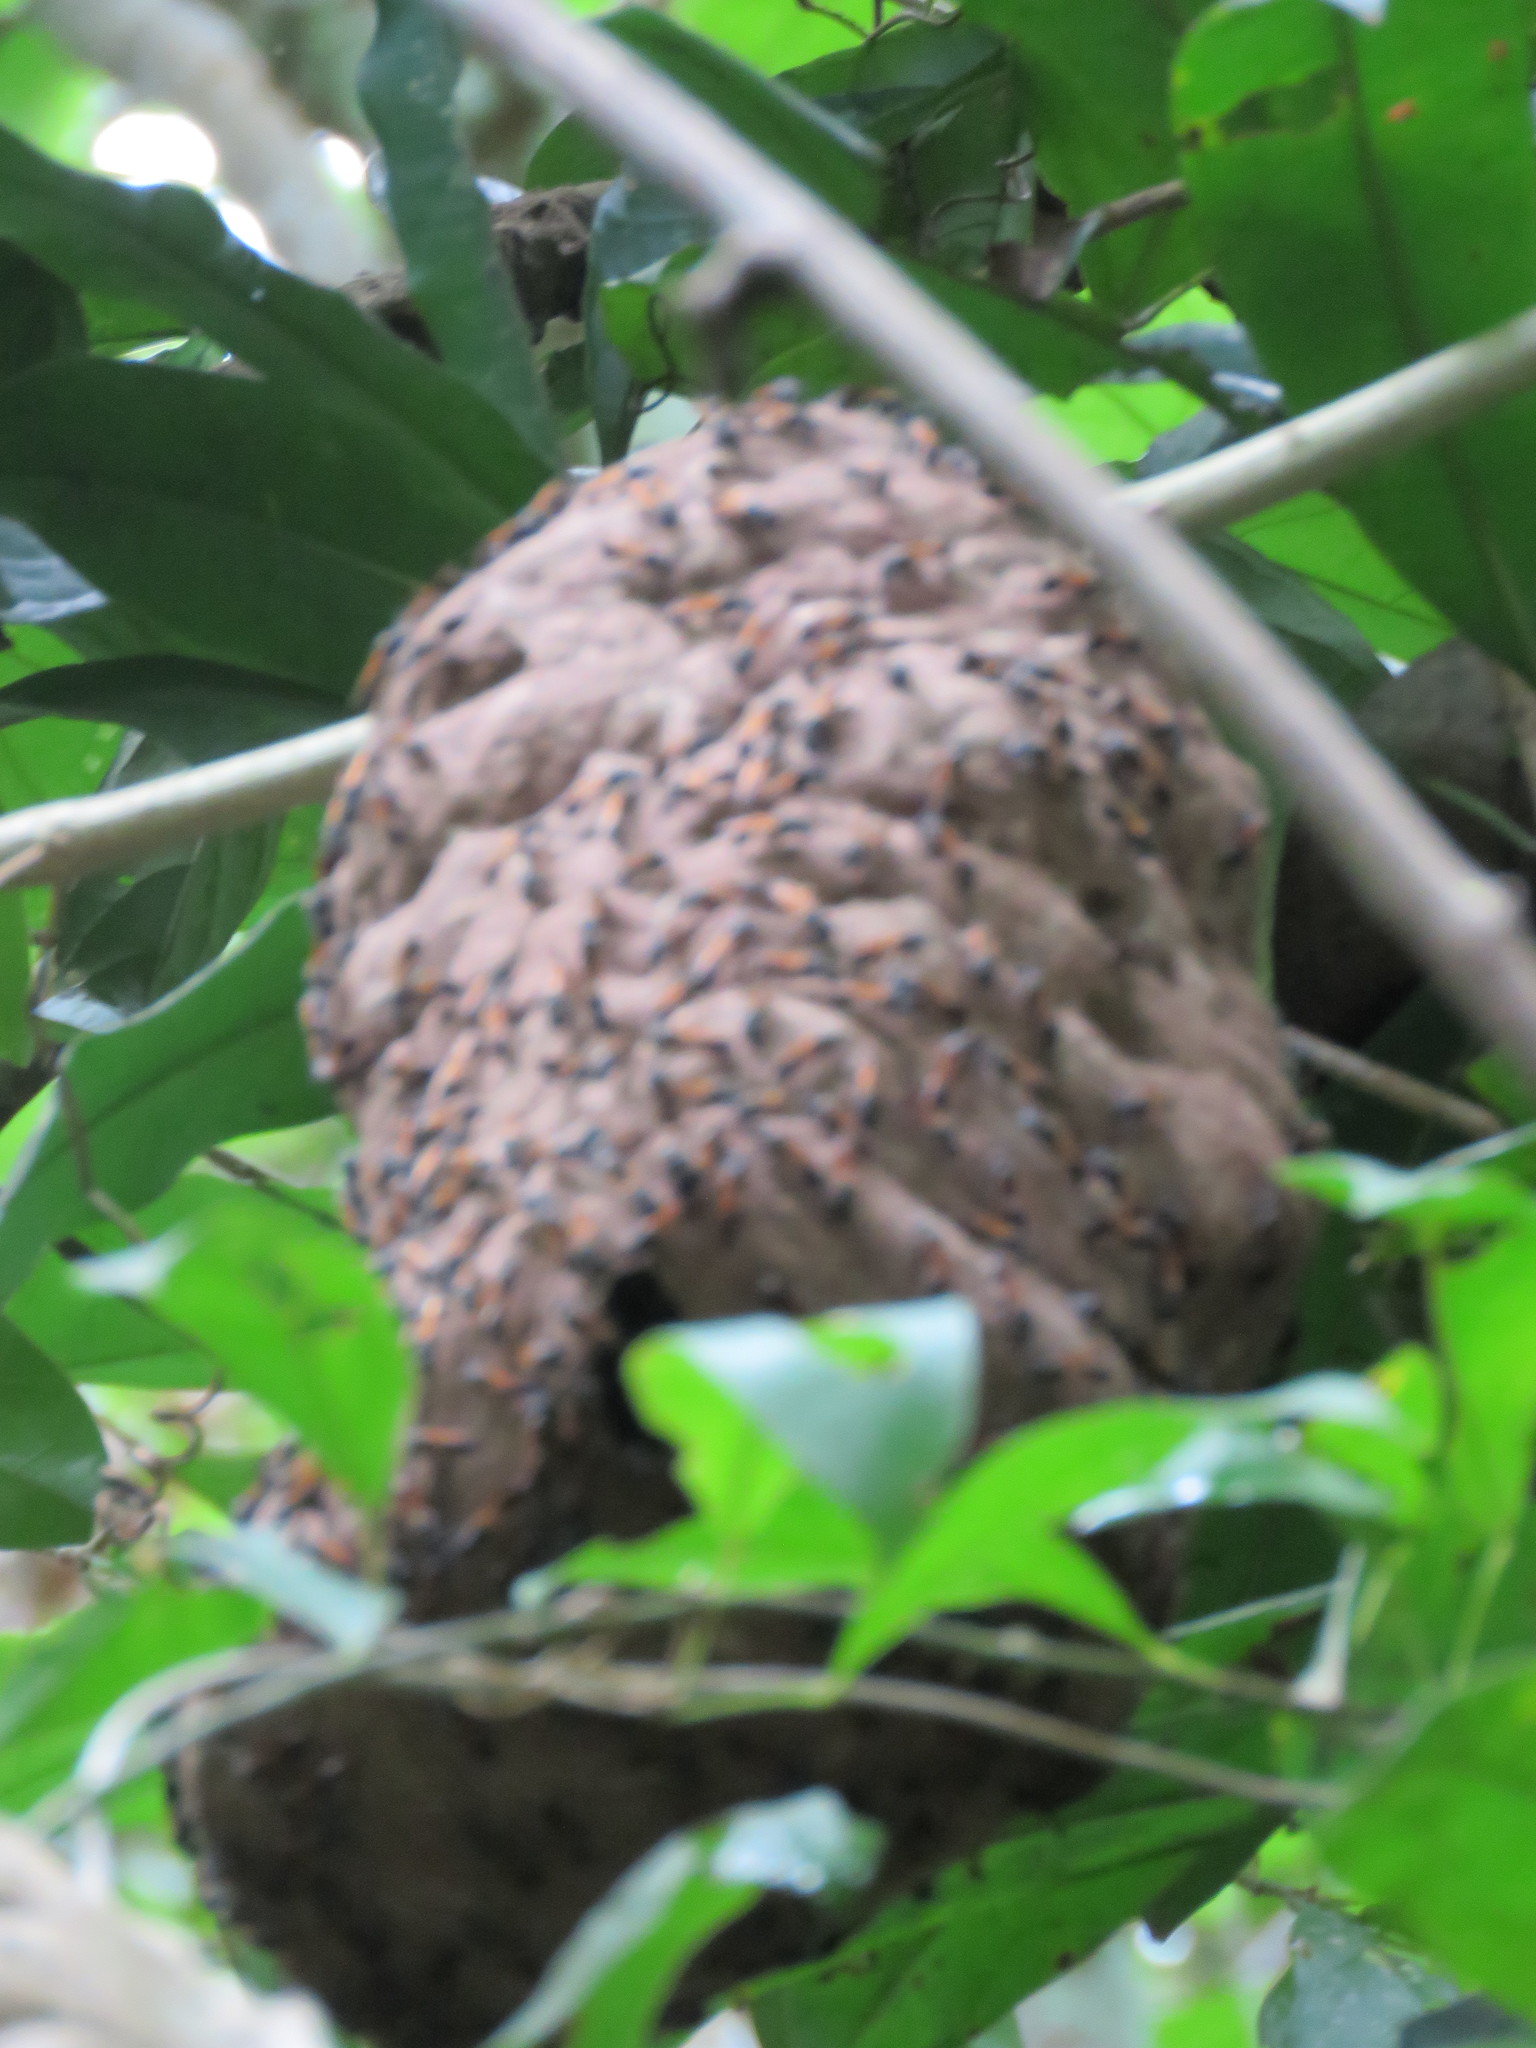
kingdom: Animalia
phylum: Arthropoda
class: Insecta
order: Hymenoptera
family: Eumenidae
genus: Polybia
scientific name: Polybia rejecta
